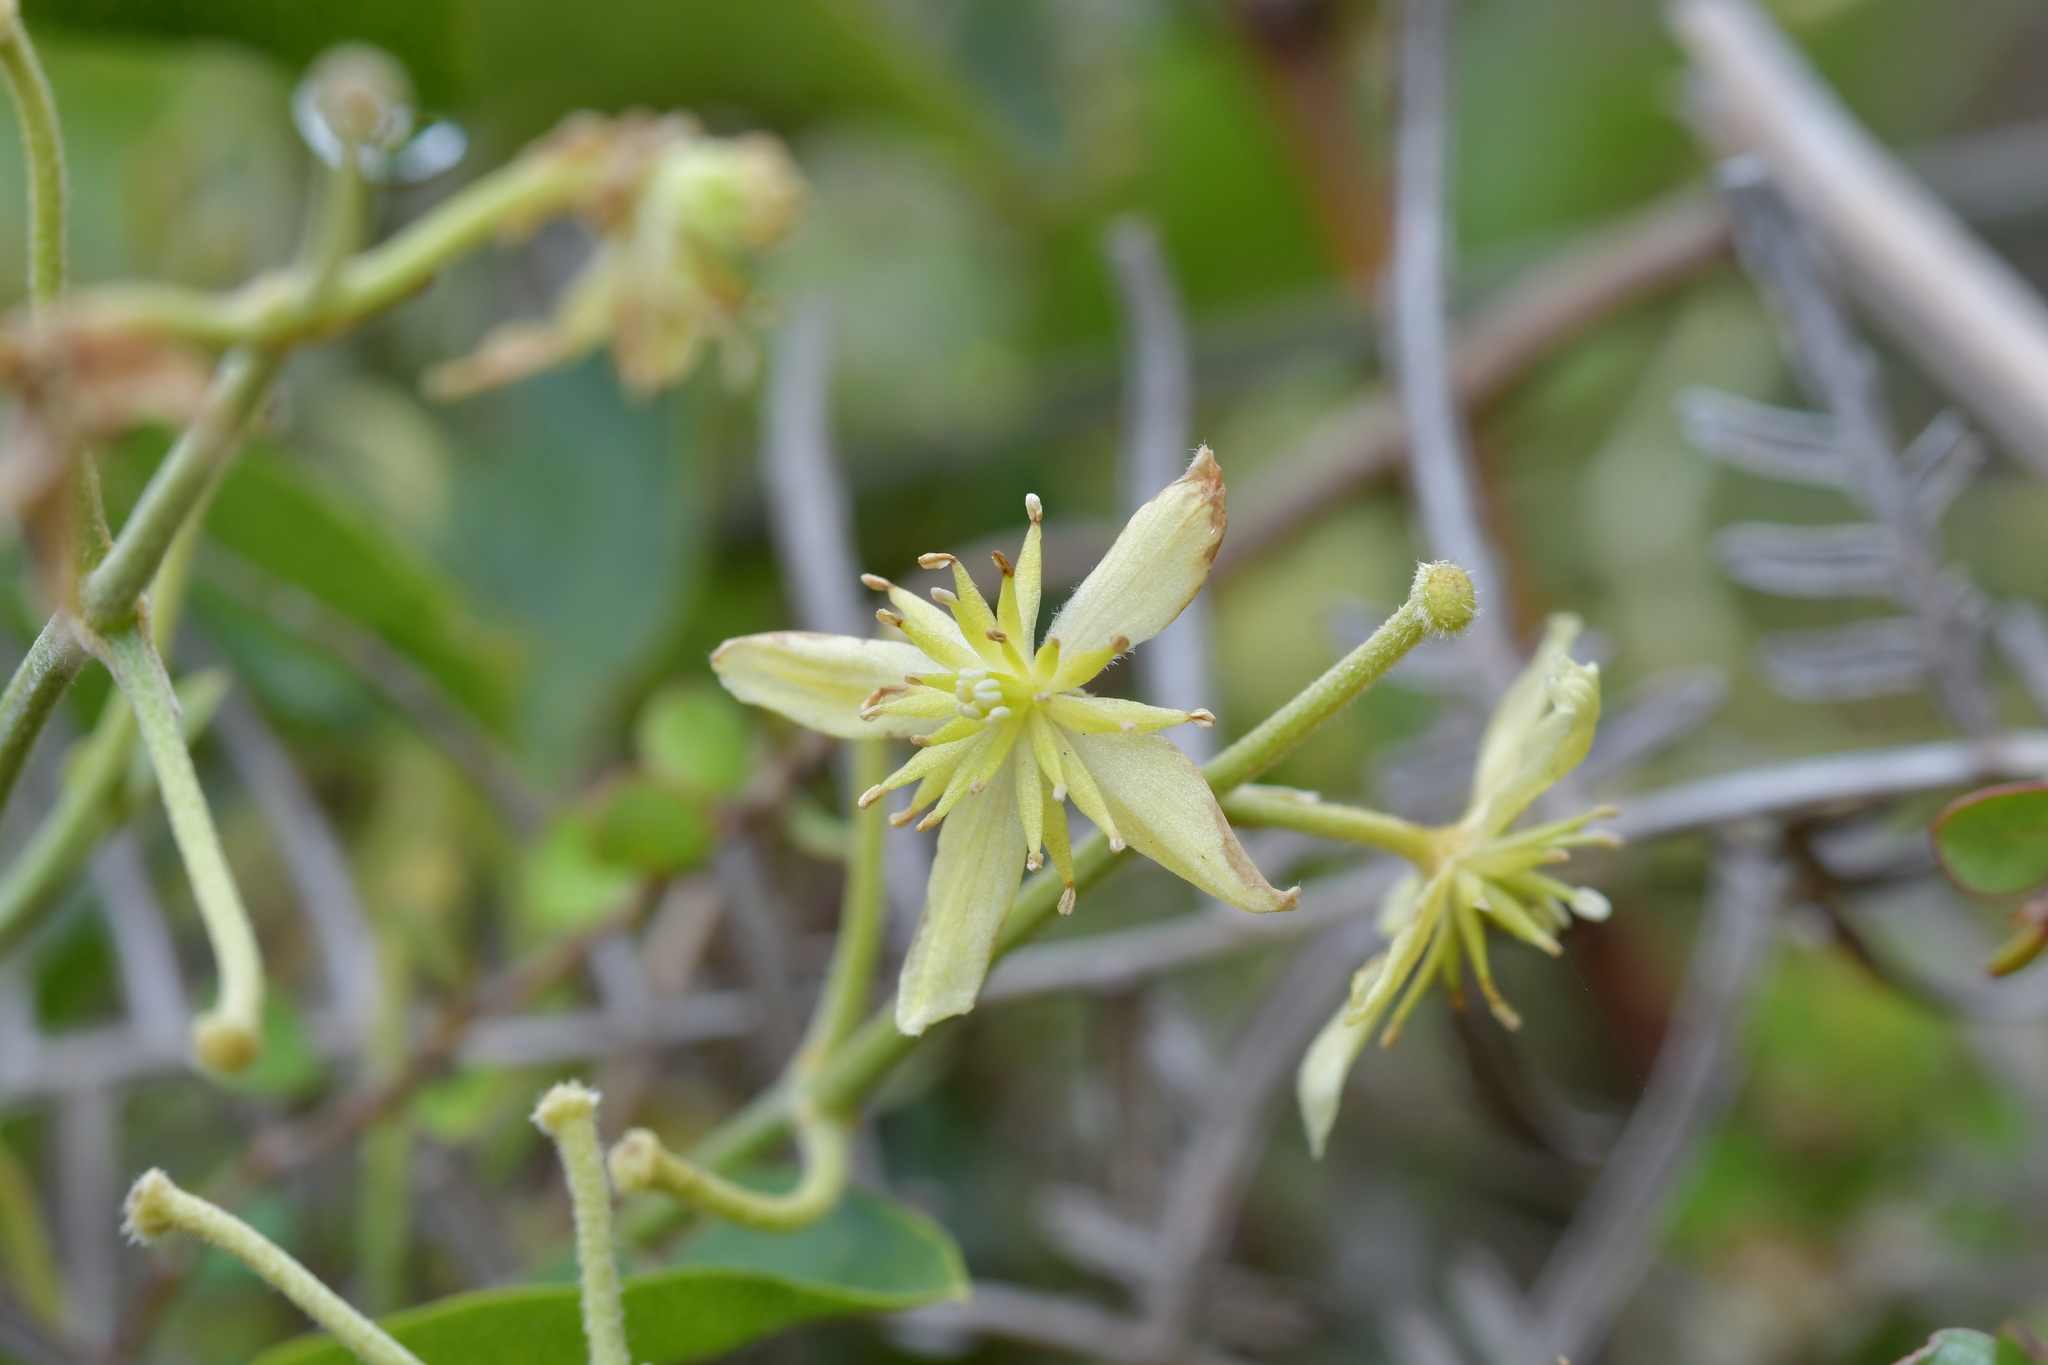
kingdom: Plantae
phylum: Tracheophyta
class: Magnoliopsida
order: Ranunculales
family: Ranunculaceae
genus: Clematis
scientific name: Clematis foetida
